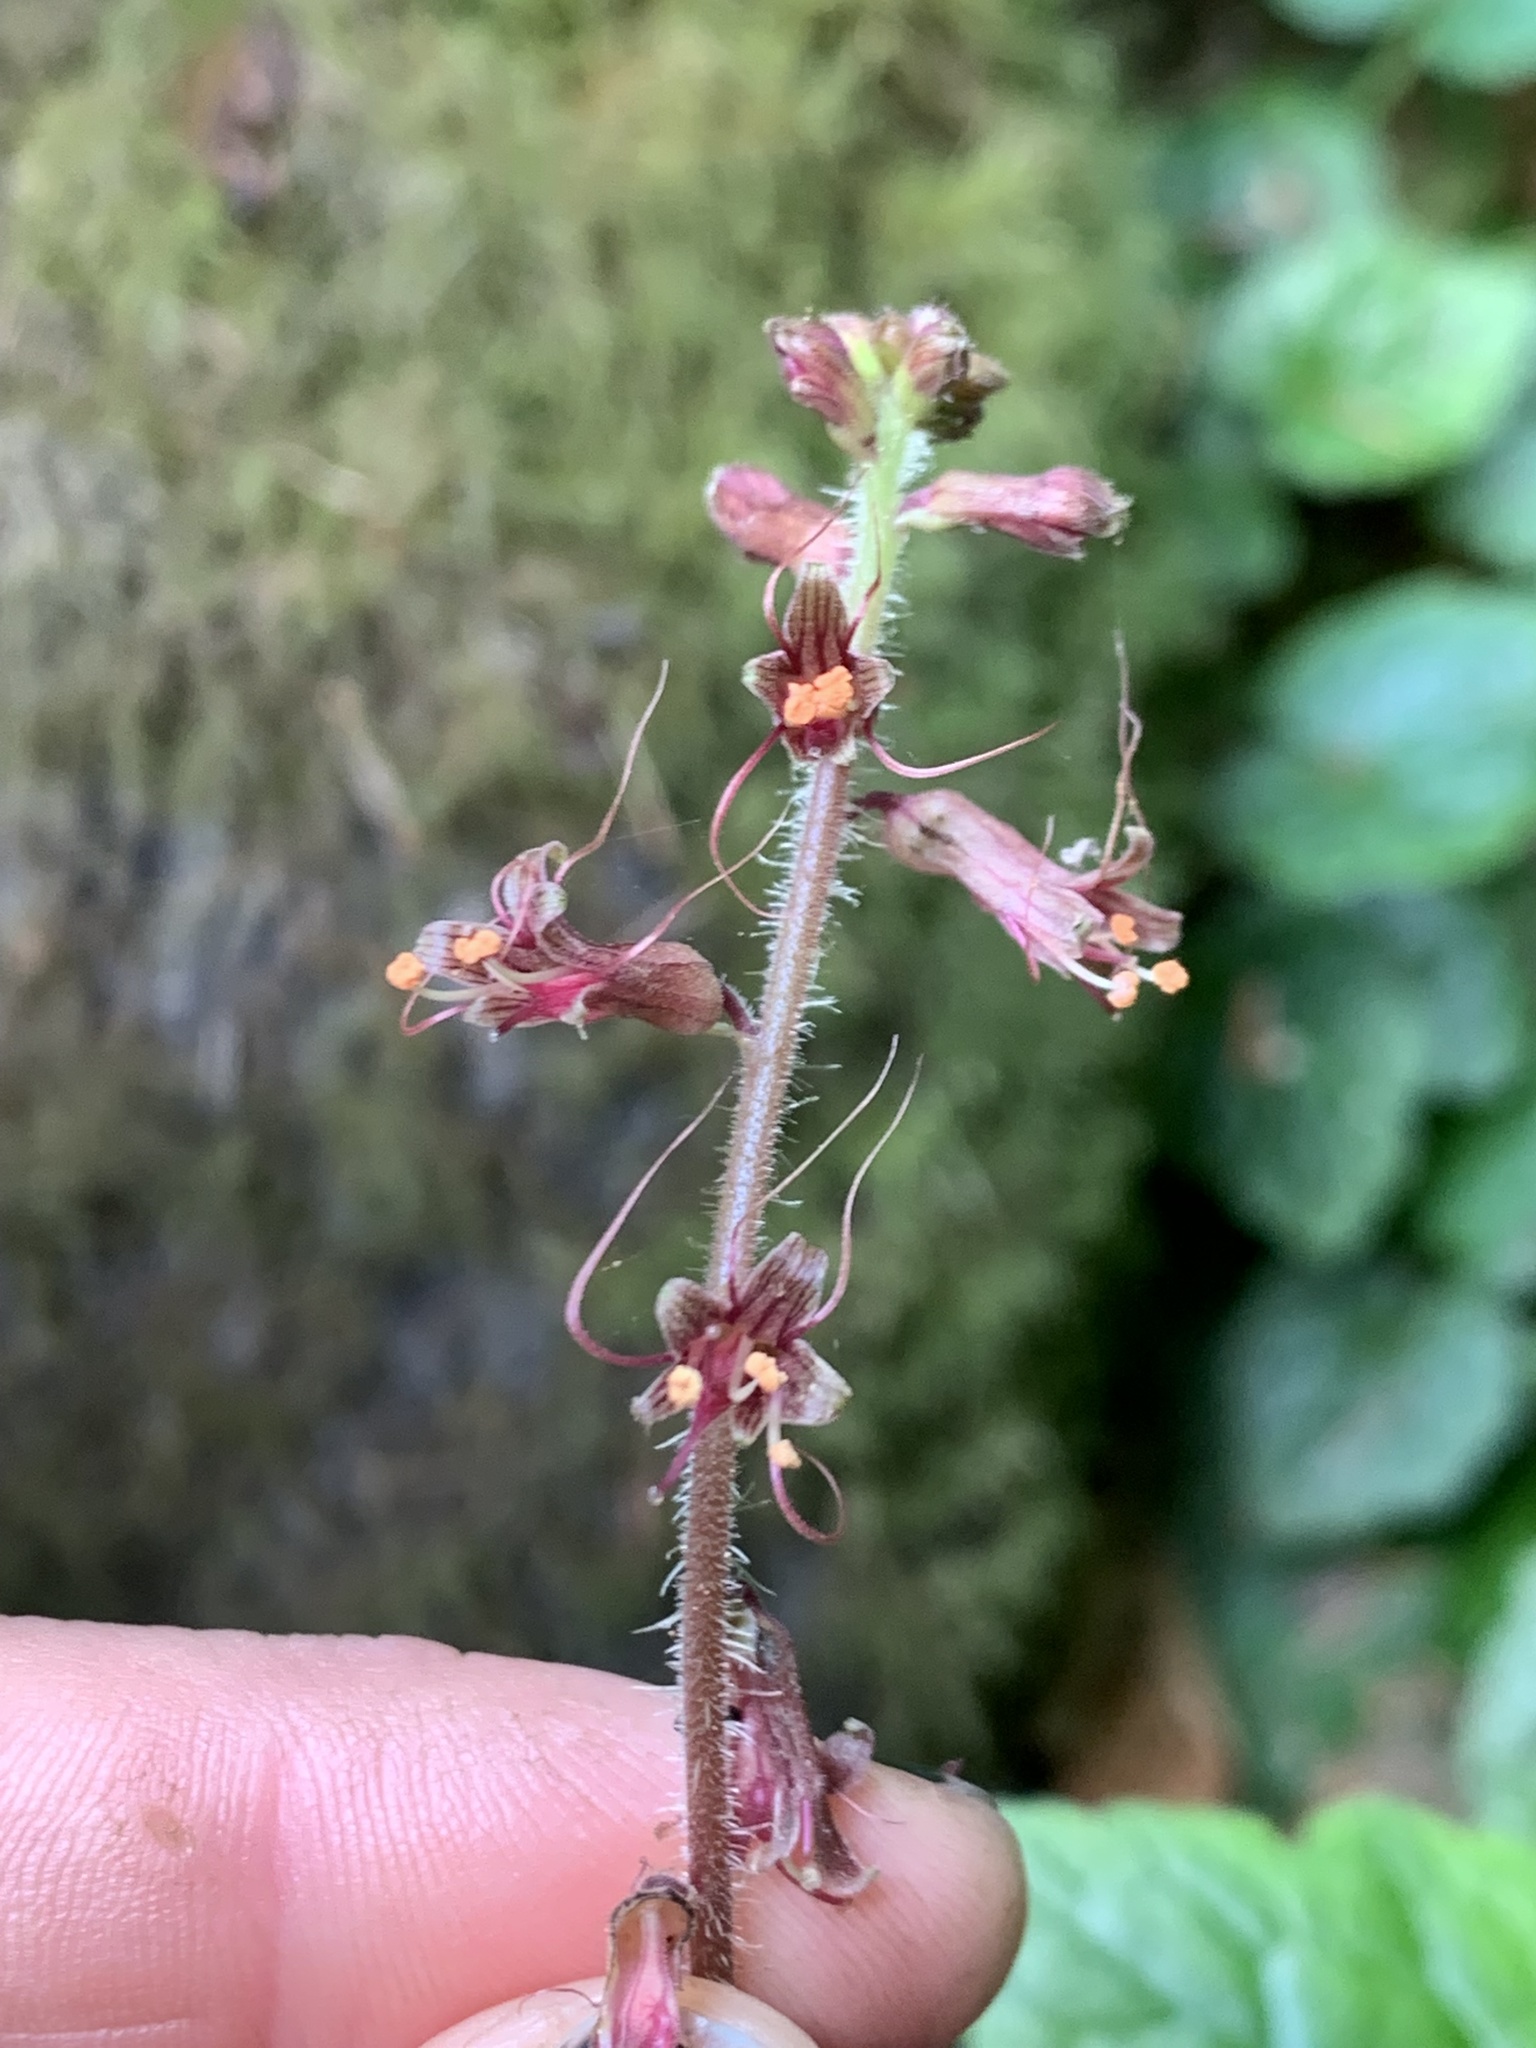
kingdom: Plantae
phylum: Tracheophyta
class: Magnoliopsida
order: Saxifragales
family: Saxifragaceae
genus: Tolmiea
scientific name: Tolmiea menziesii
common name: Pick-a-back-plant
